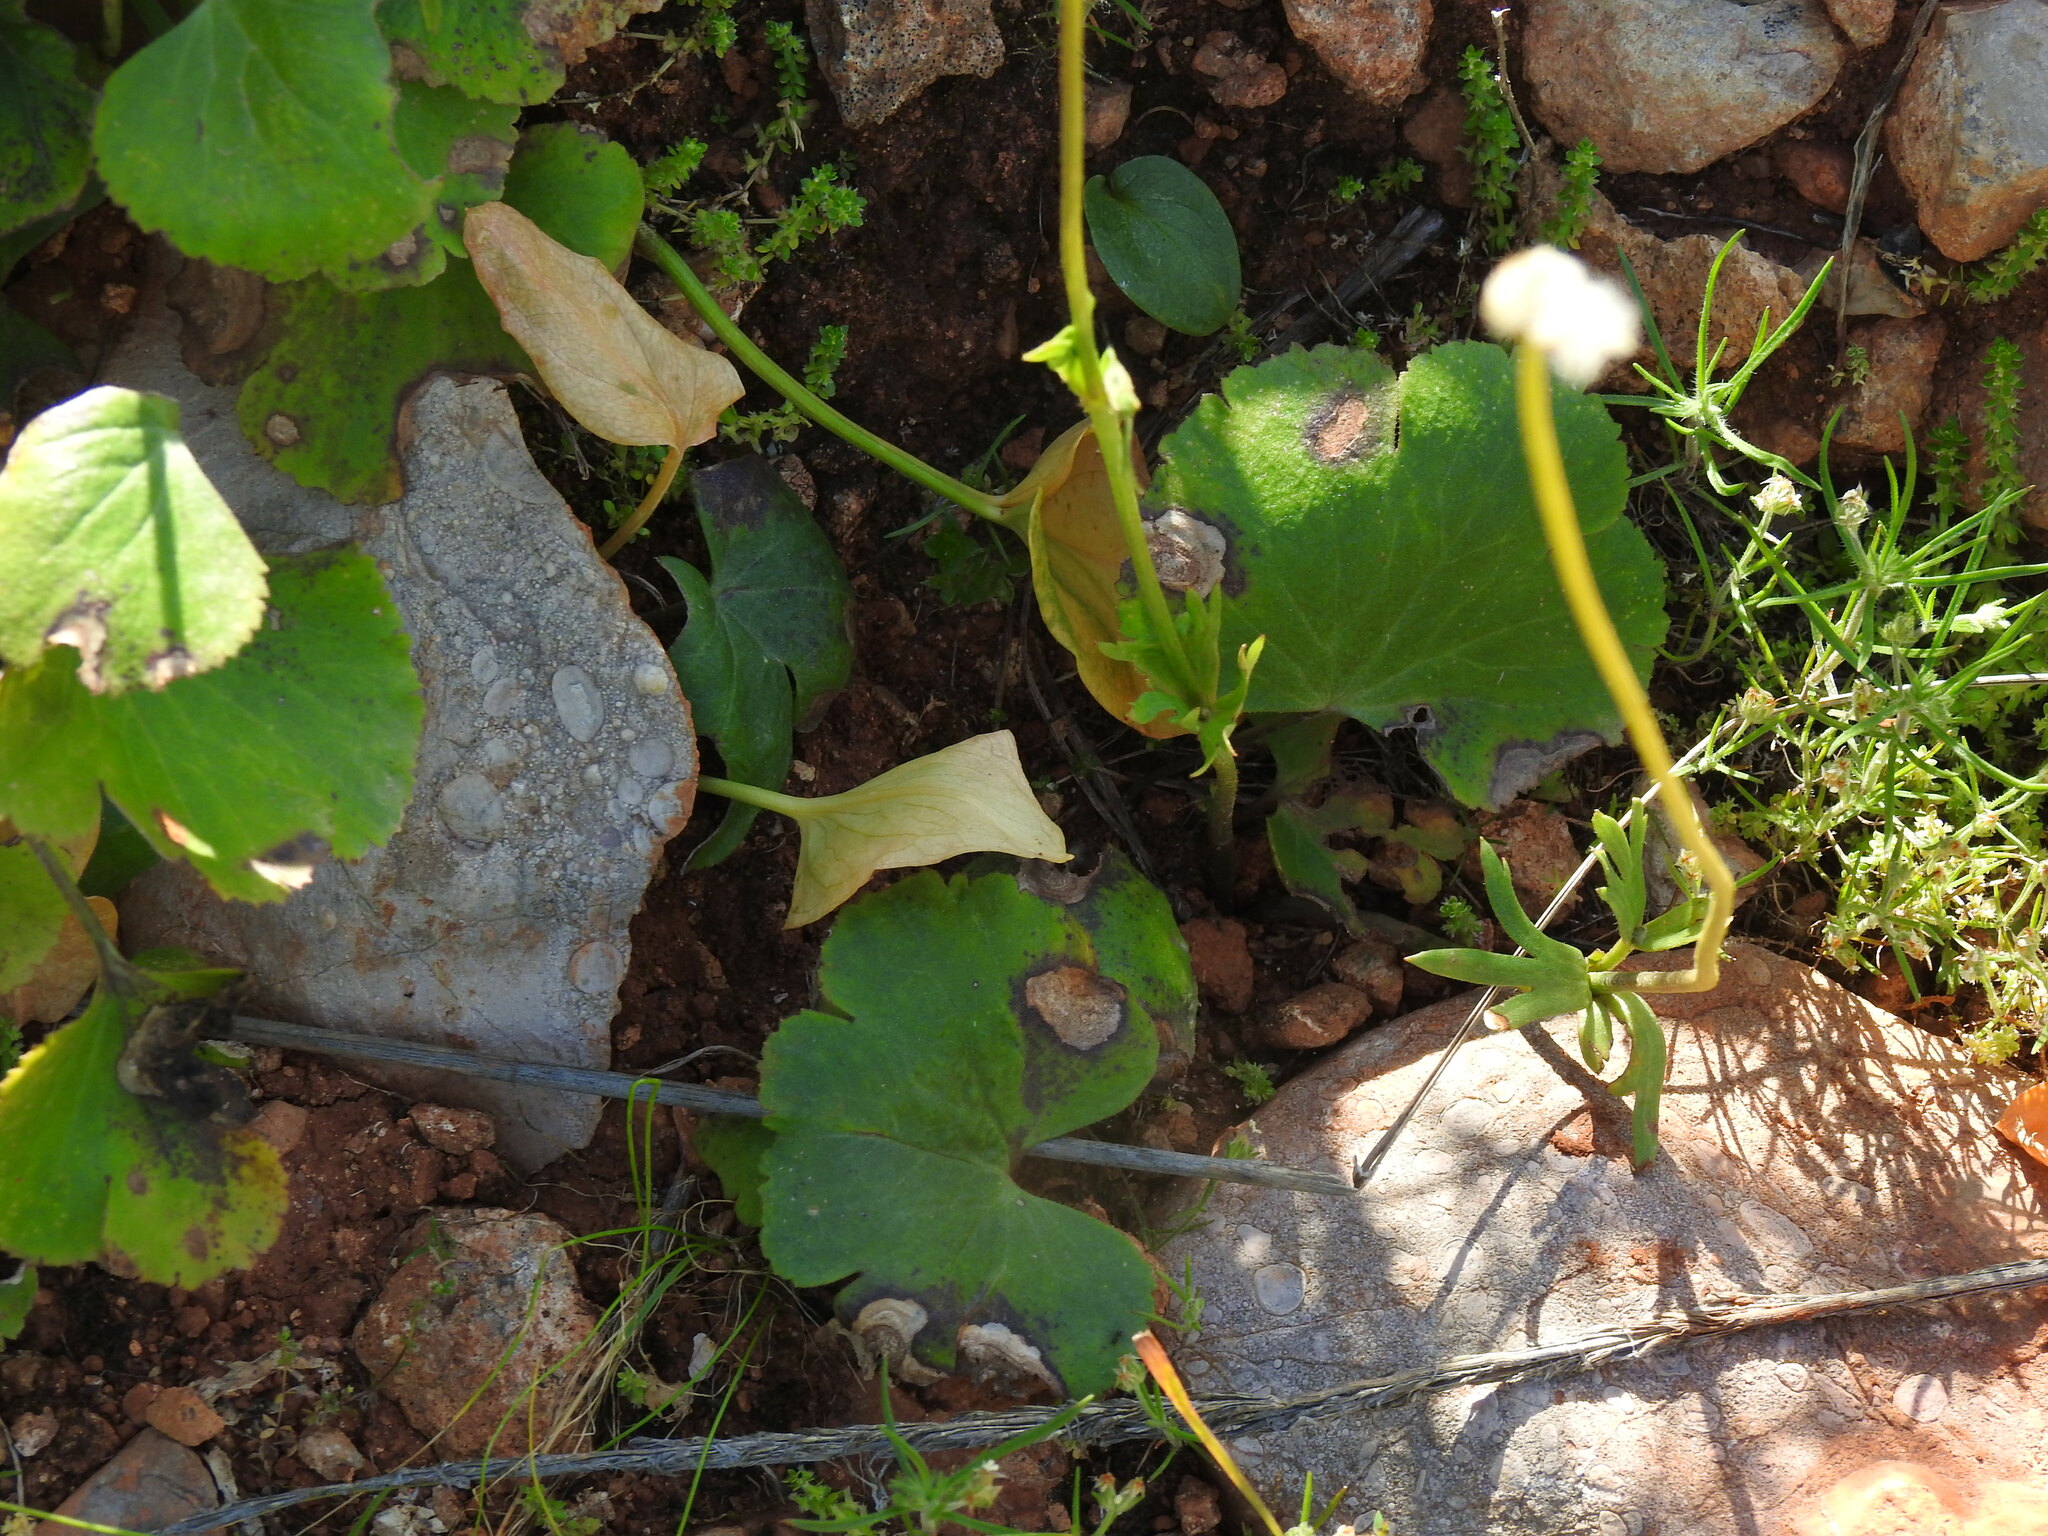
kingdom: Plantae
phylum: Tracheophyta
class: Magnoliopsida
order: Ranunculales
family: Ranunculaceae
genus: Anemone
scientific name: Anemone palmata
